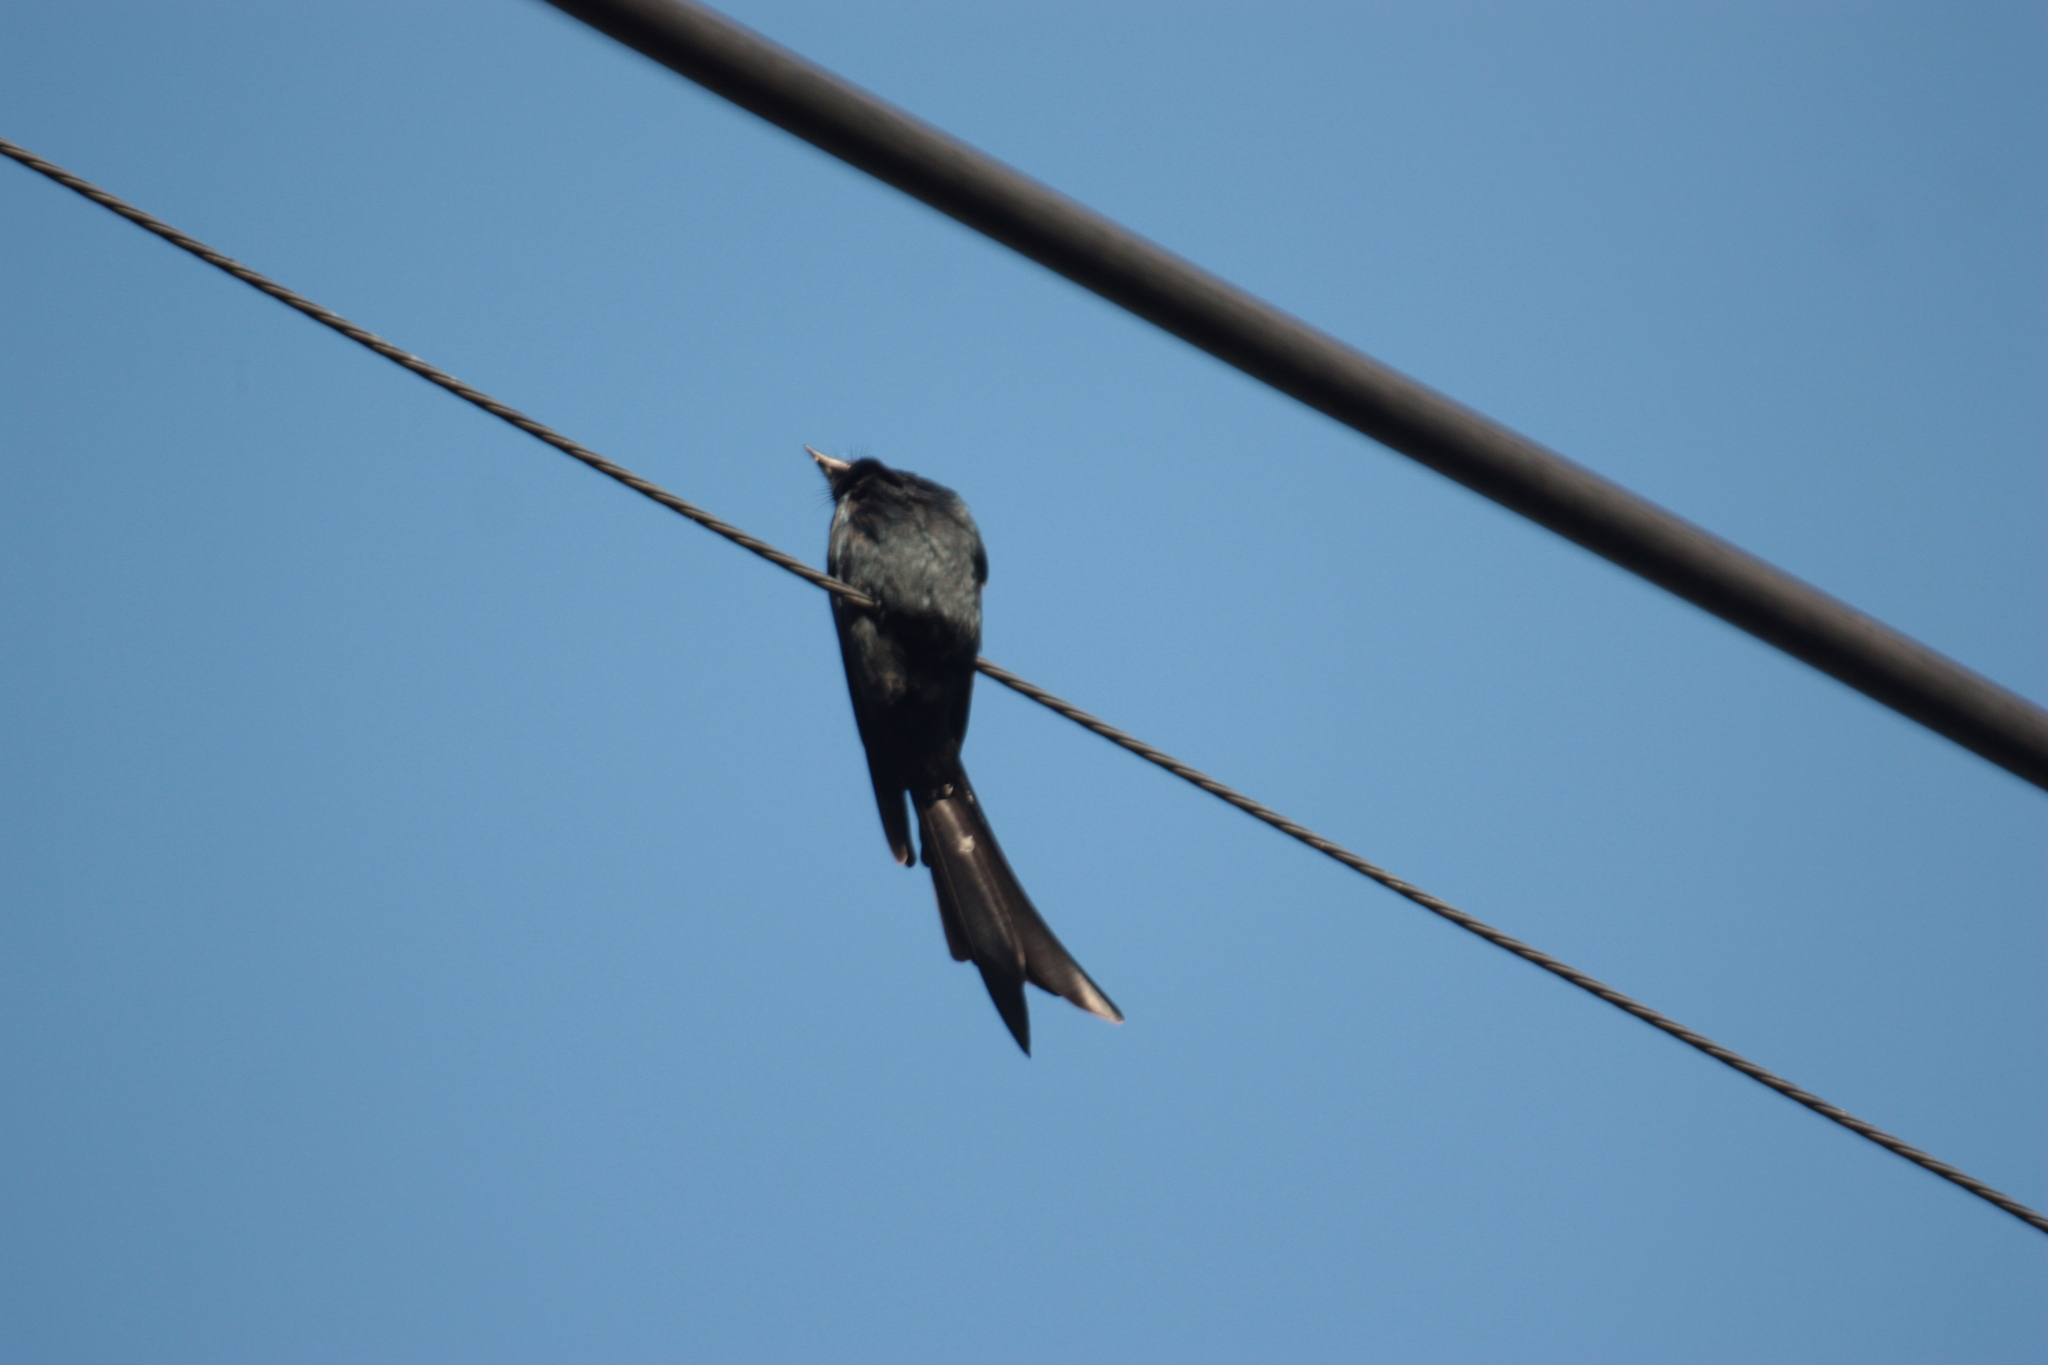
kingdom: Animalia
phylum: Chordata
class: Aves
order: Passeriformes
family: Dicruridae
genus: Dicrurus
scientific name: Dicrurus macrocercus
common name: Black drongo
